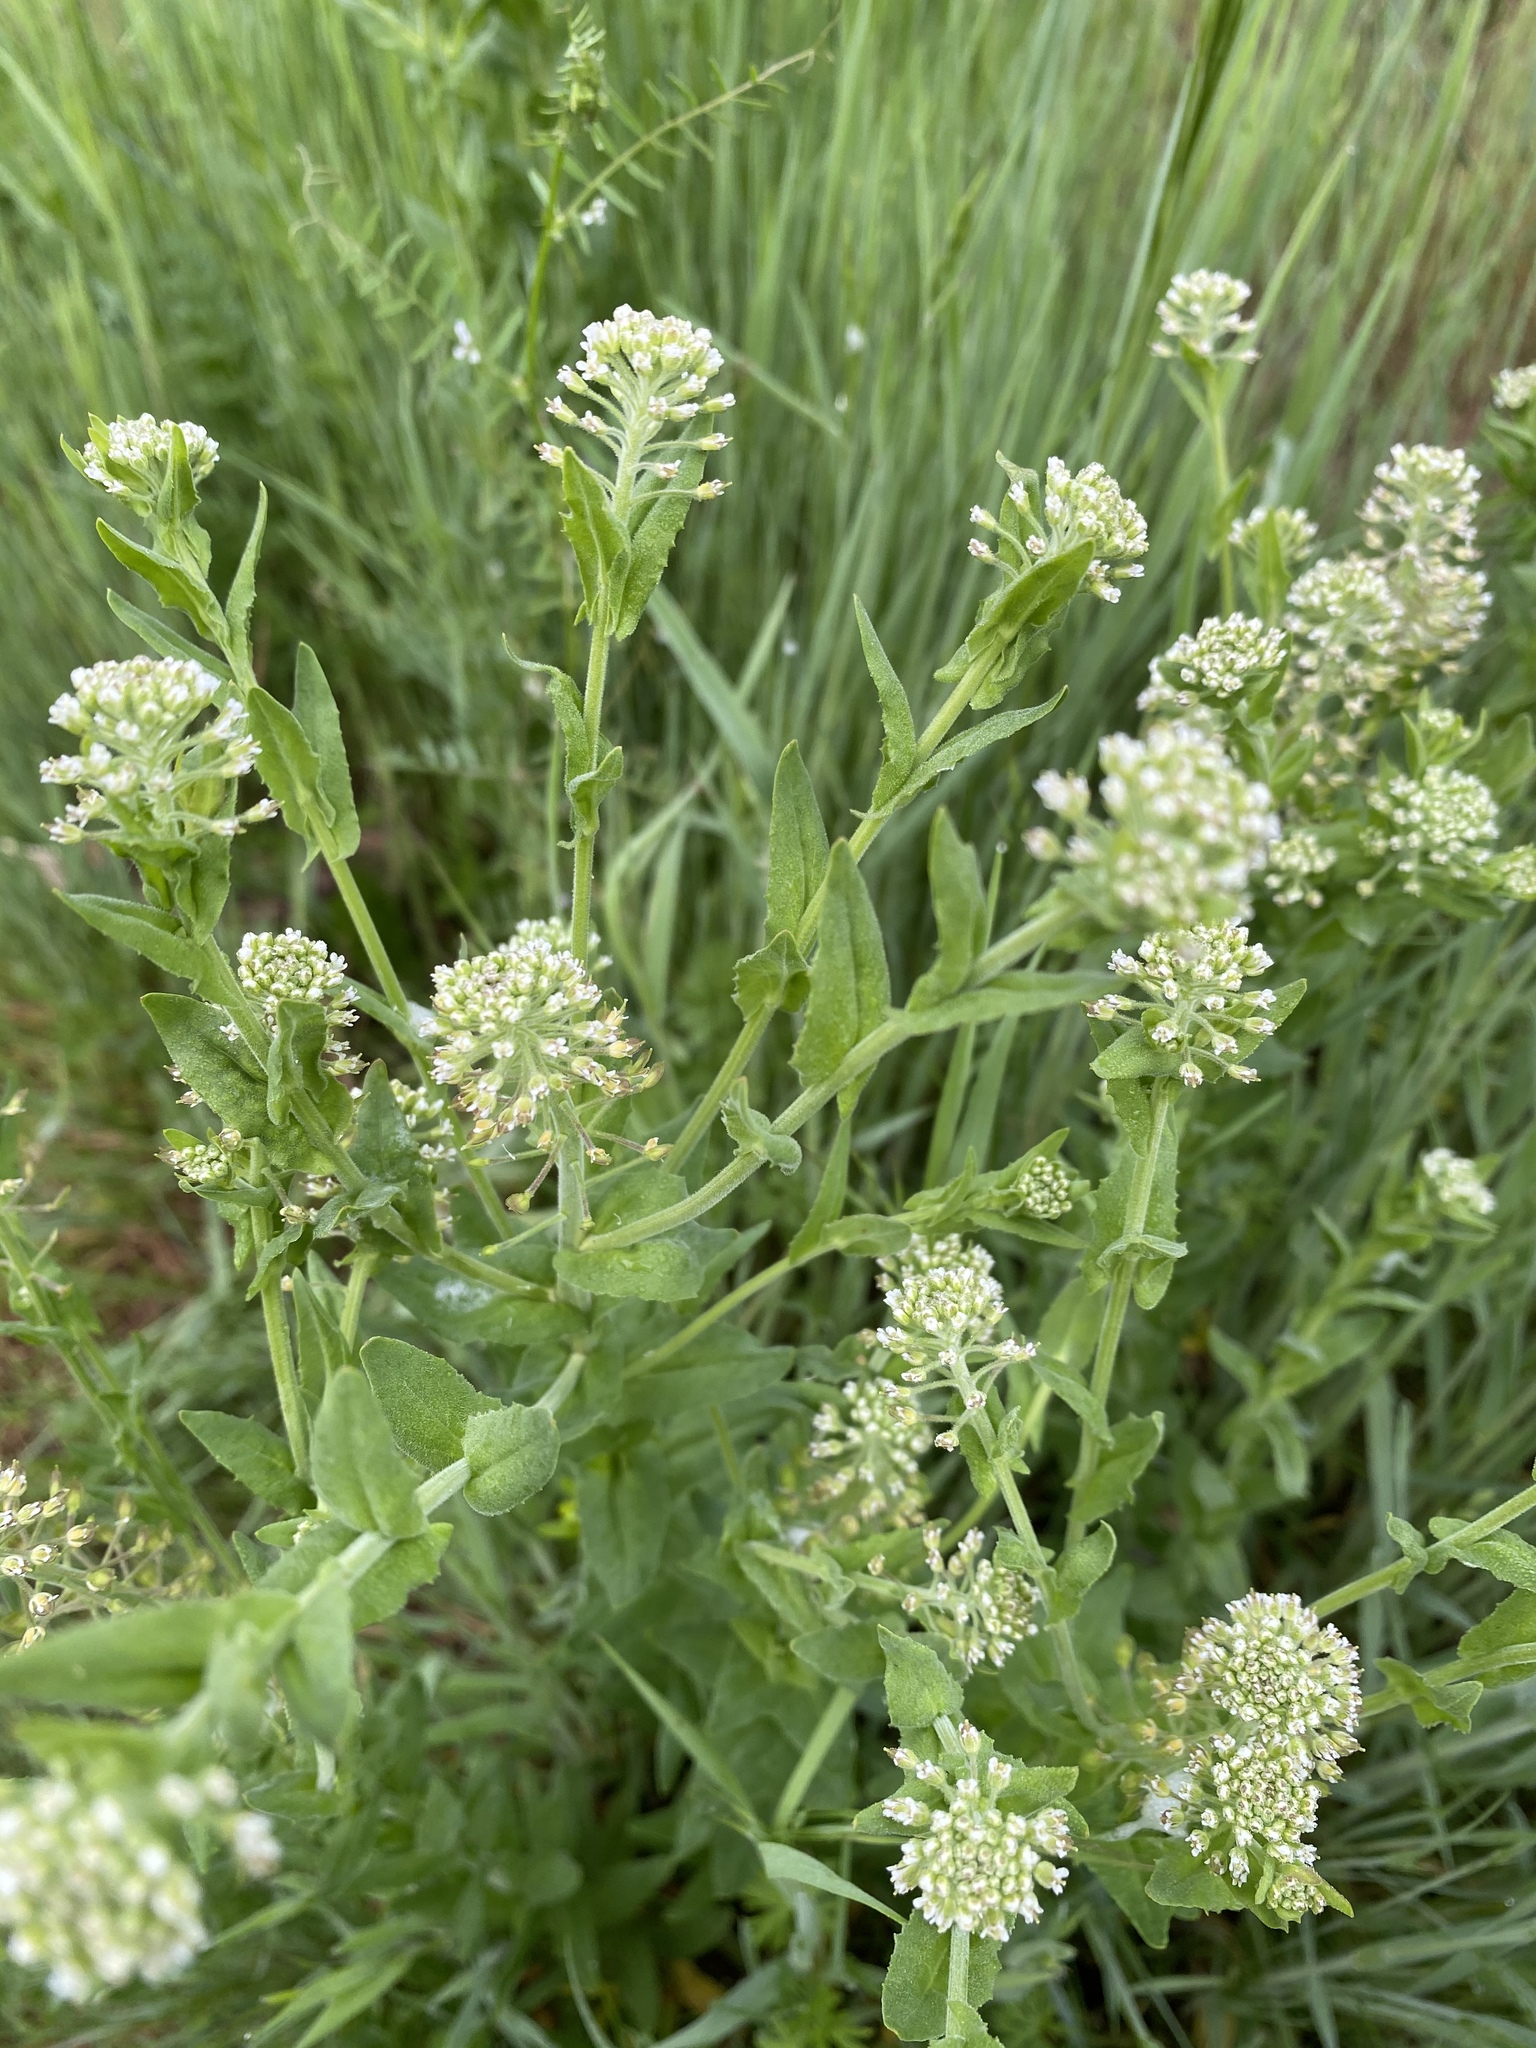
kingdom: Plantae
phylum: Tracheophyta
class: Magnoliopsida
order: Brassicales
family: Brassicaceae
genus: Lepidium
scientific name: Lepidium campestre
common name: Field pepperwort
